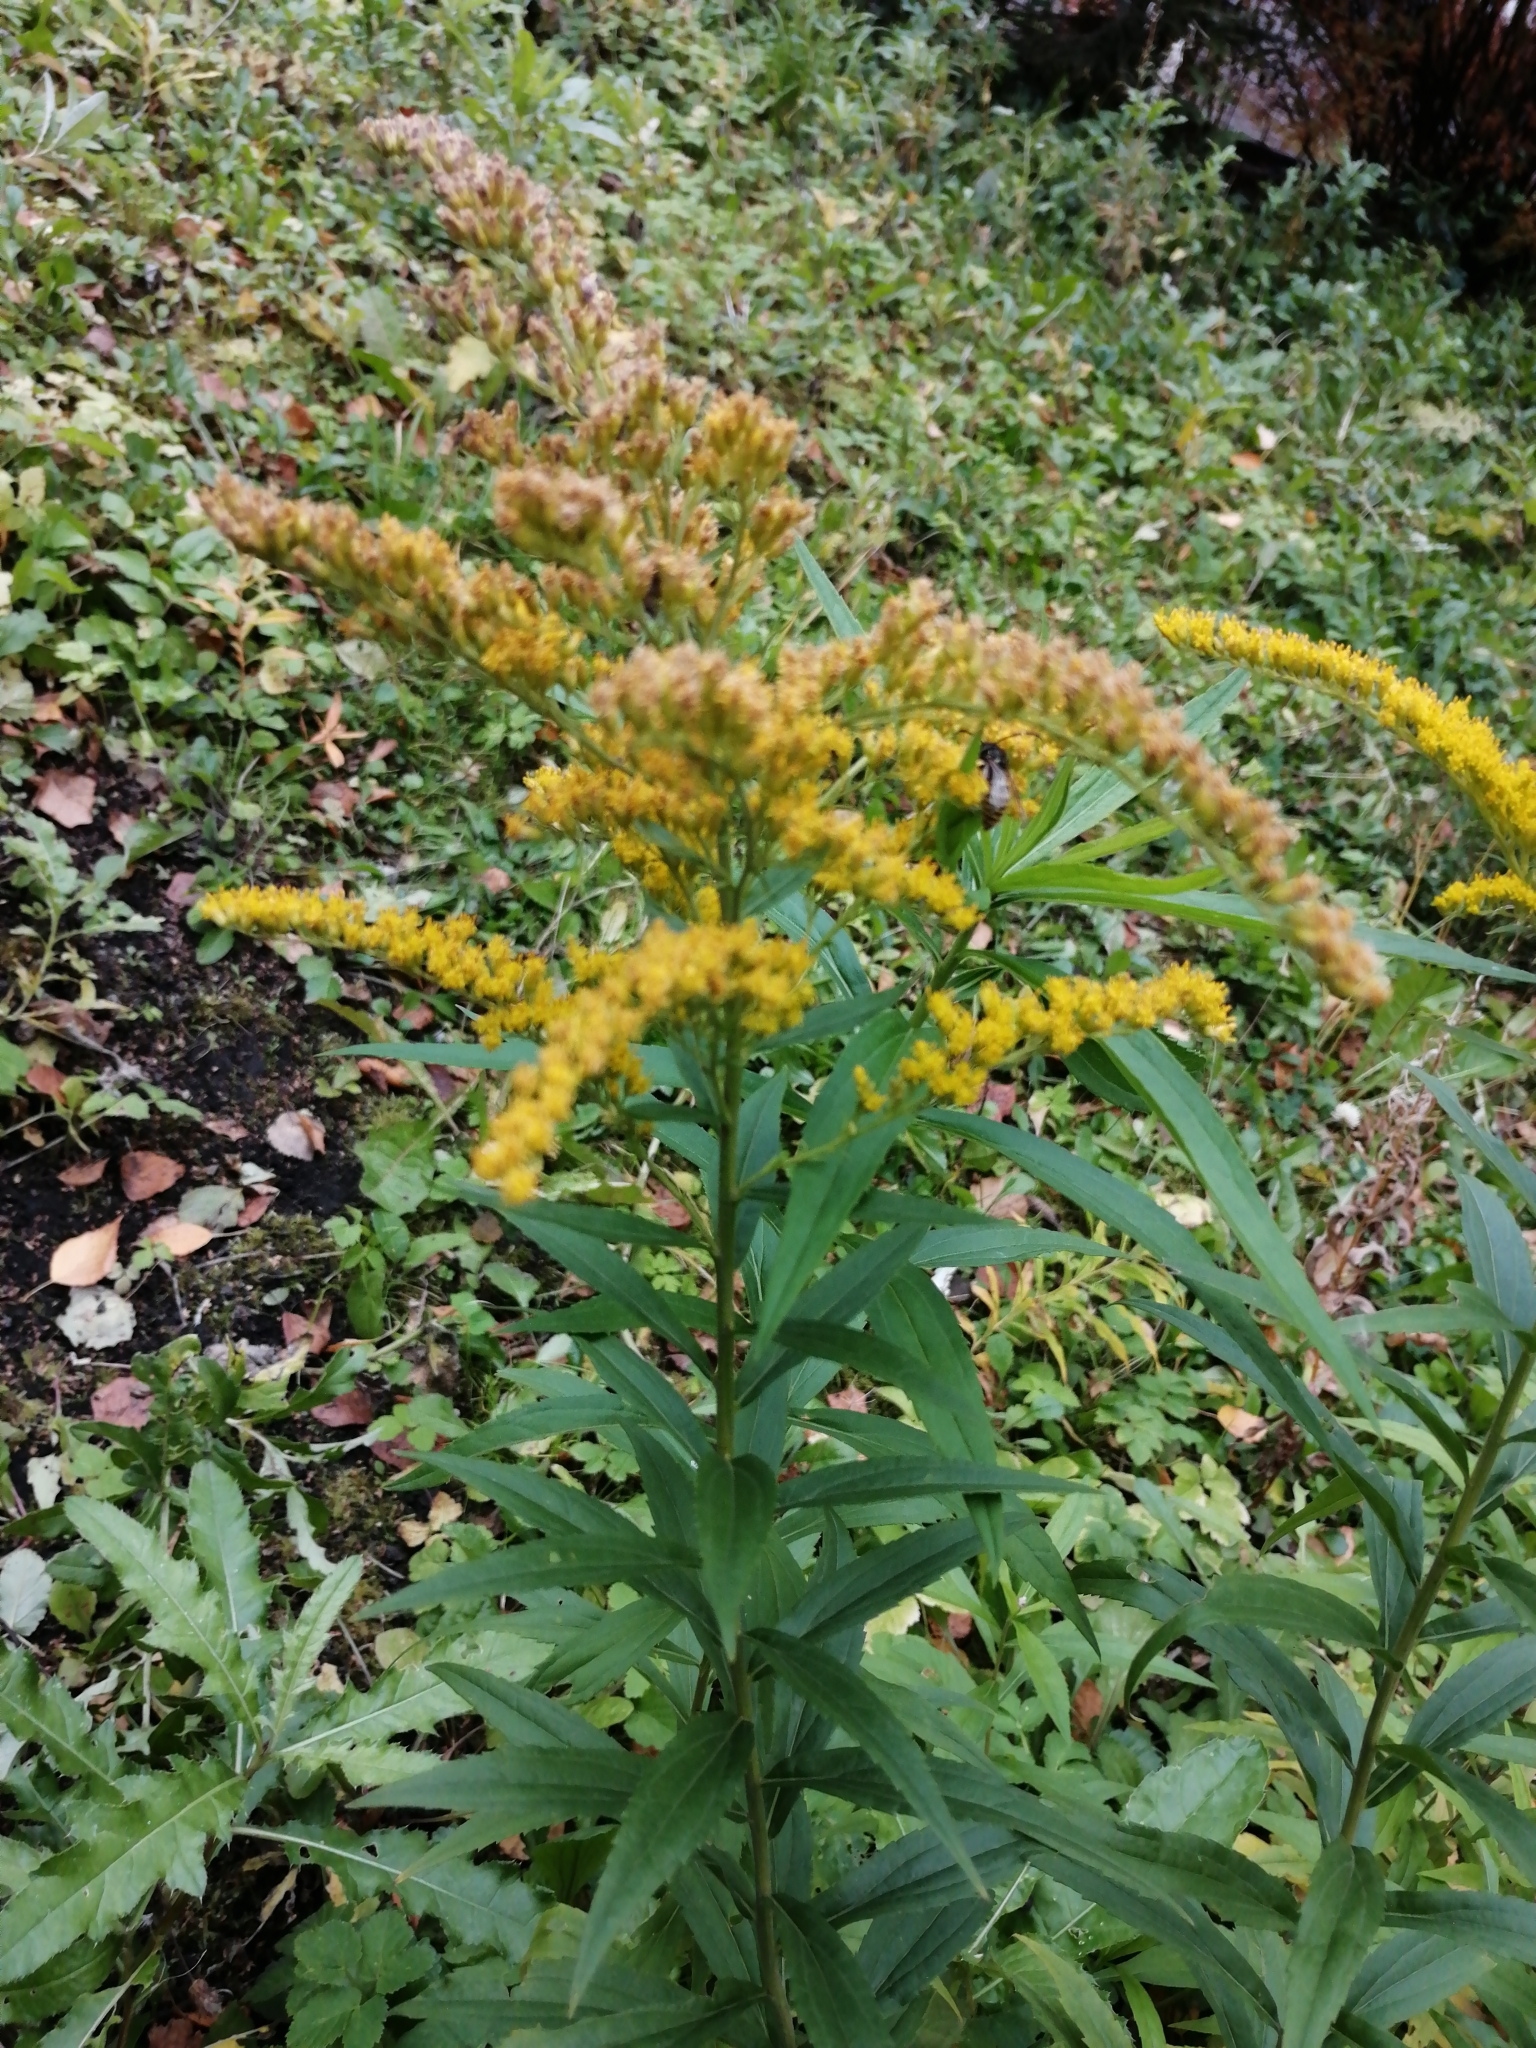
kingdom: Plantae
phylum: Tracheophyta
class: Magnoliopsida
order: Asterales
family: Asteraceae
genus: Solidago
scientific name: Solidago gigantea
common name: Giant goldenrod
